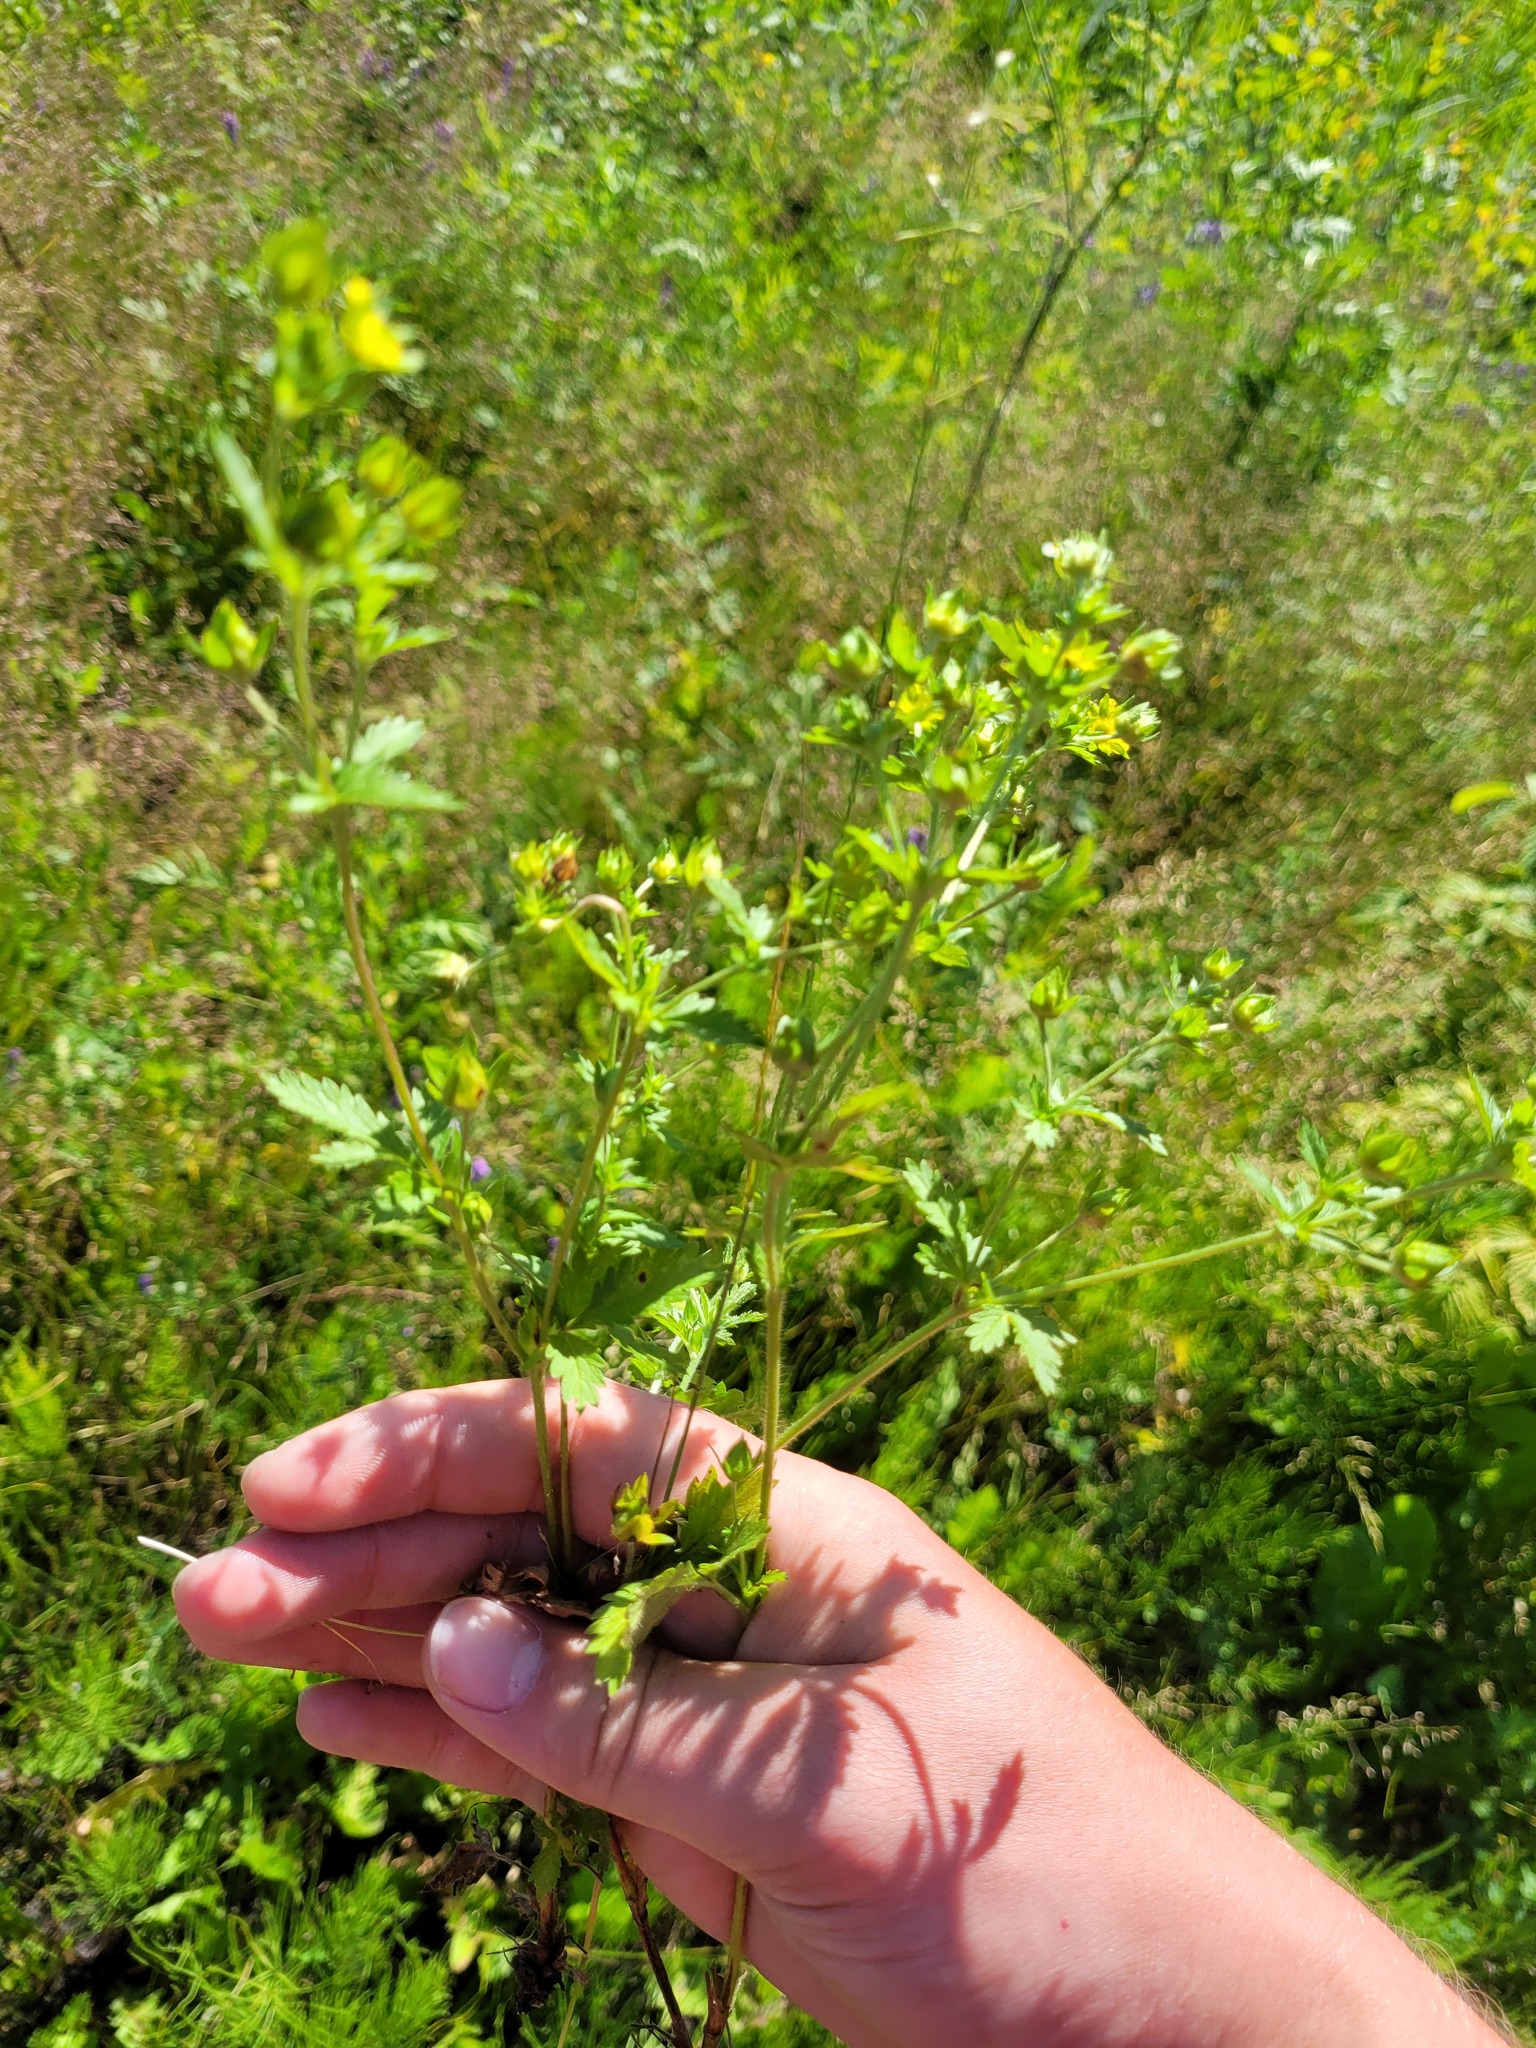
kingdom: Plantae
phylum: Tracheophyta
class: Magnoliopsida
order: Rosales
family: Rosaceae
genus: Potentilla
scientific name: Potentilla intermedia
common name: Downy cinquefoil
